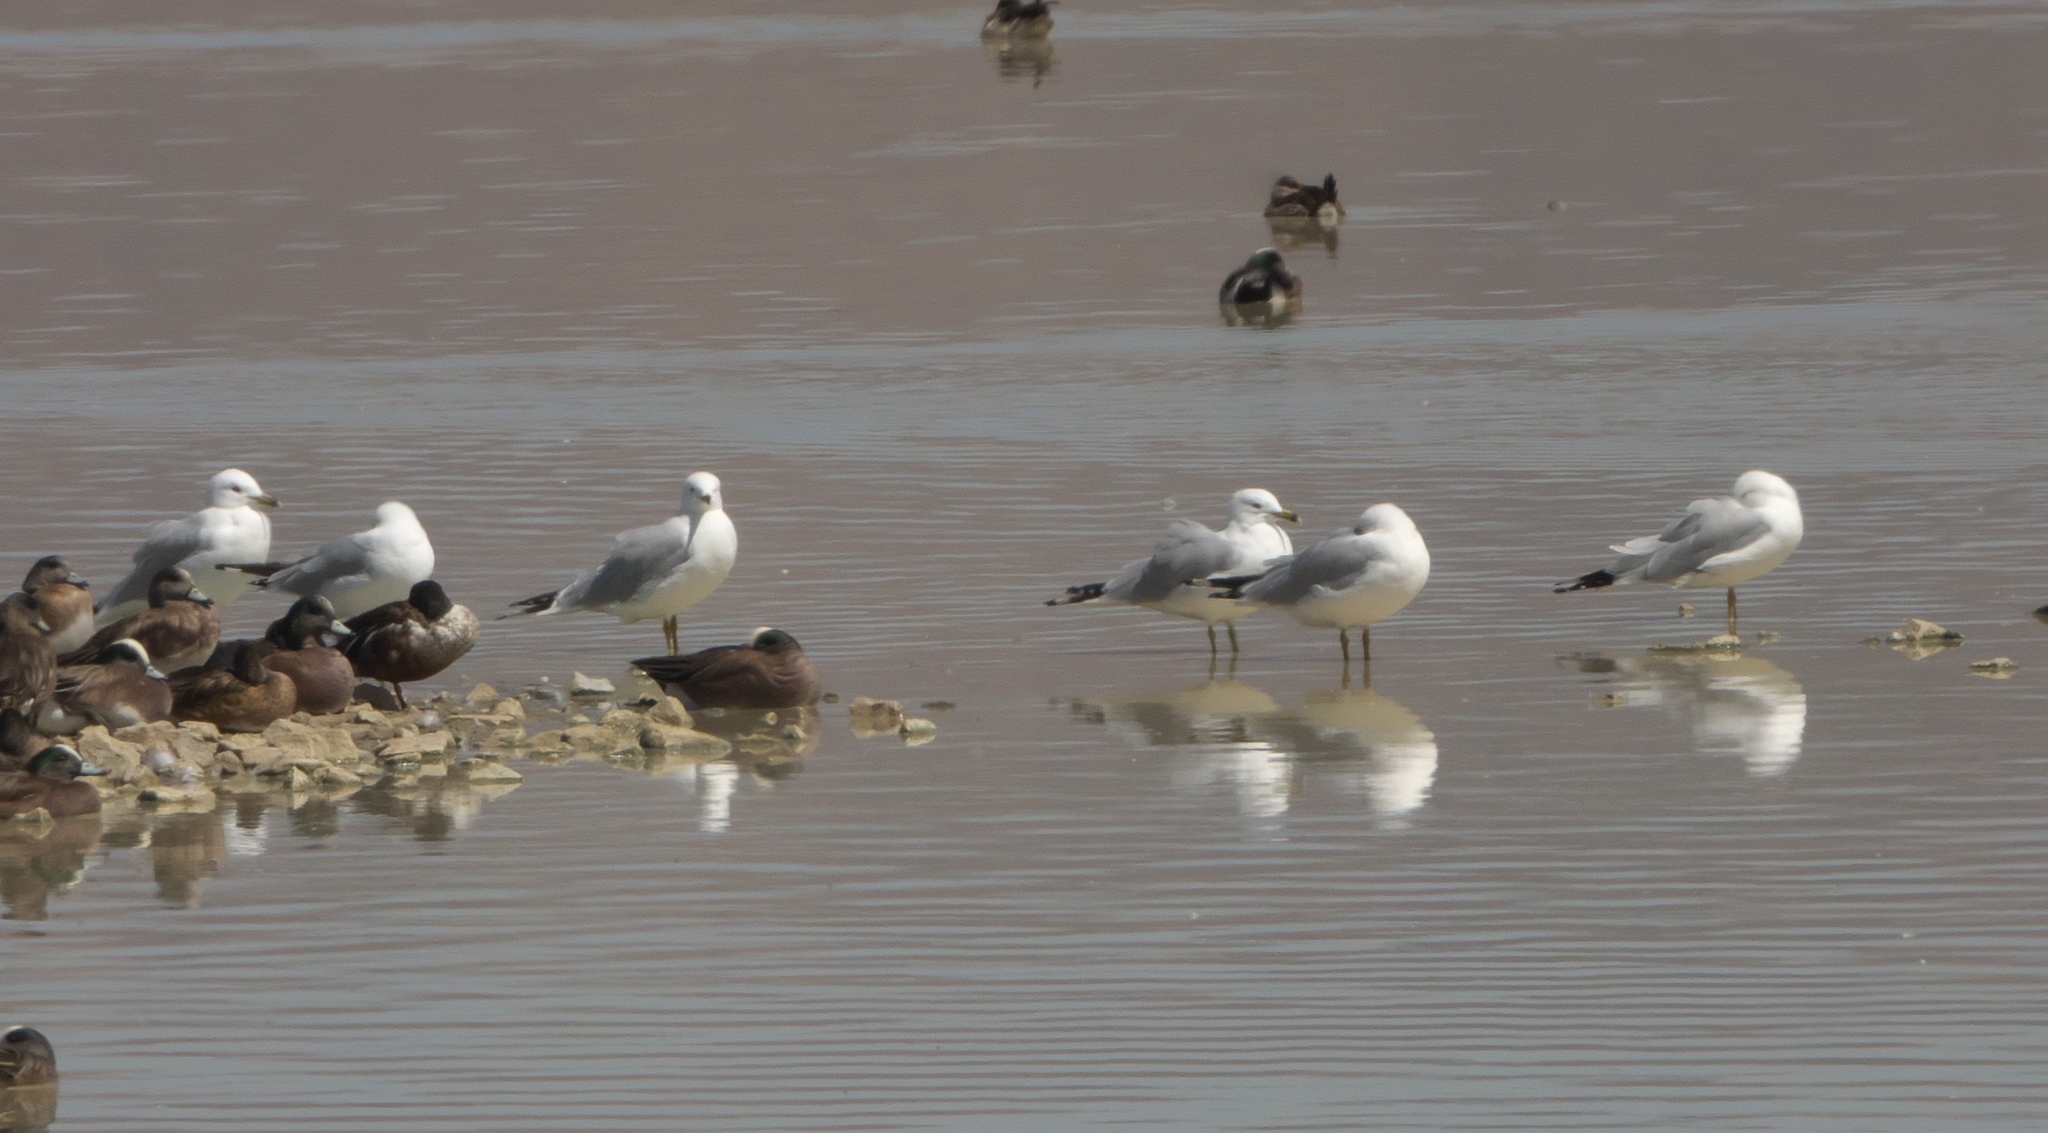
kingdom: Animalia
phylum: Chordata
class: Aves
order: Charadriiformes
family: Laridae
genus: Larus
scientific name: Larus delawarensis
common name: Ring-billed gull
